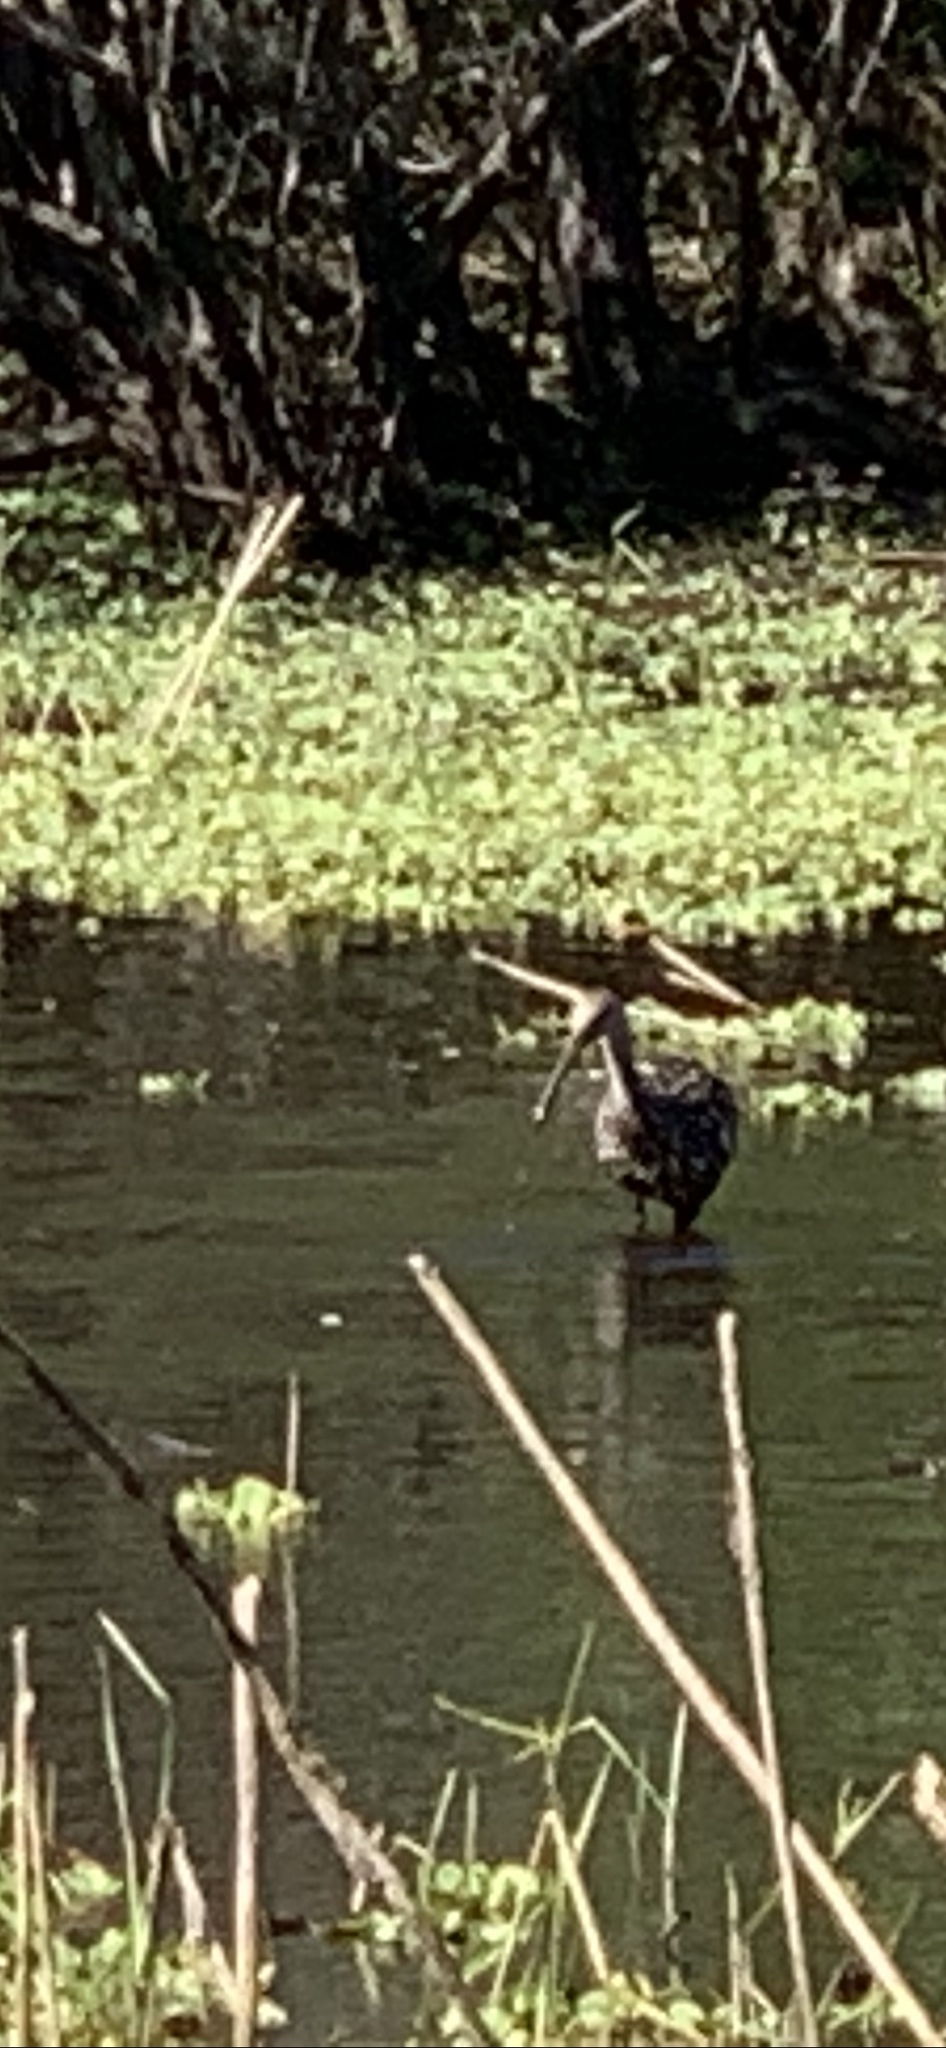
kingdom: Animalia
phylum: Chordata
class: Aves
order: Gruiformes
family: Aramidae
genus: Aramus
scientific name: Aramus guarauna
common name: Limpkin
